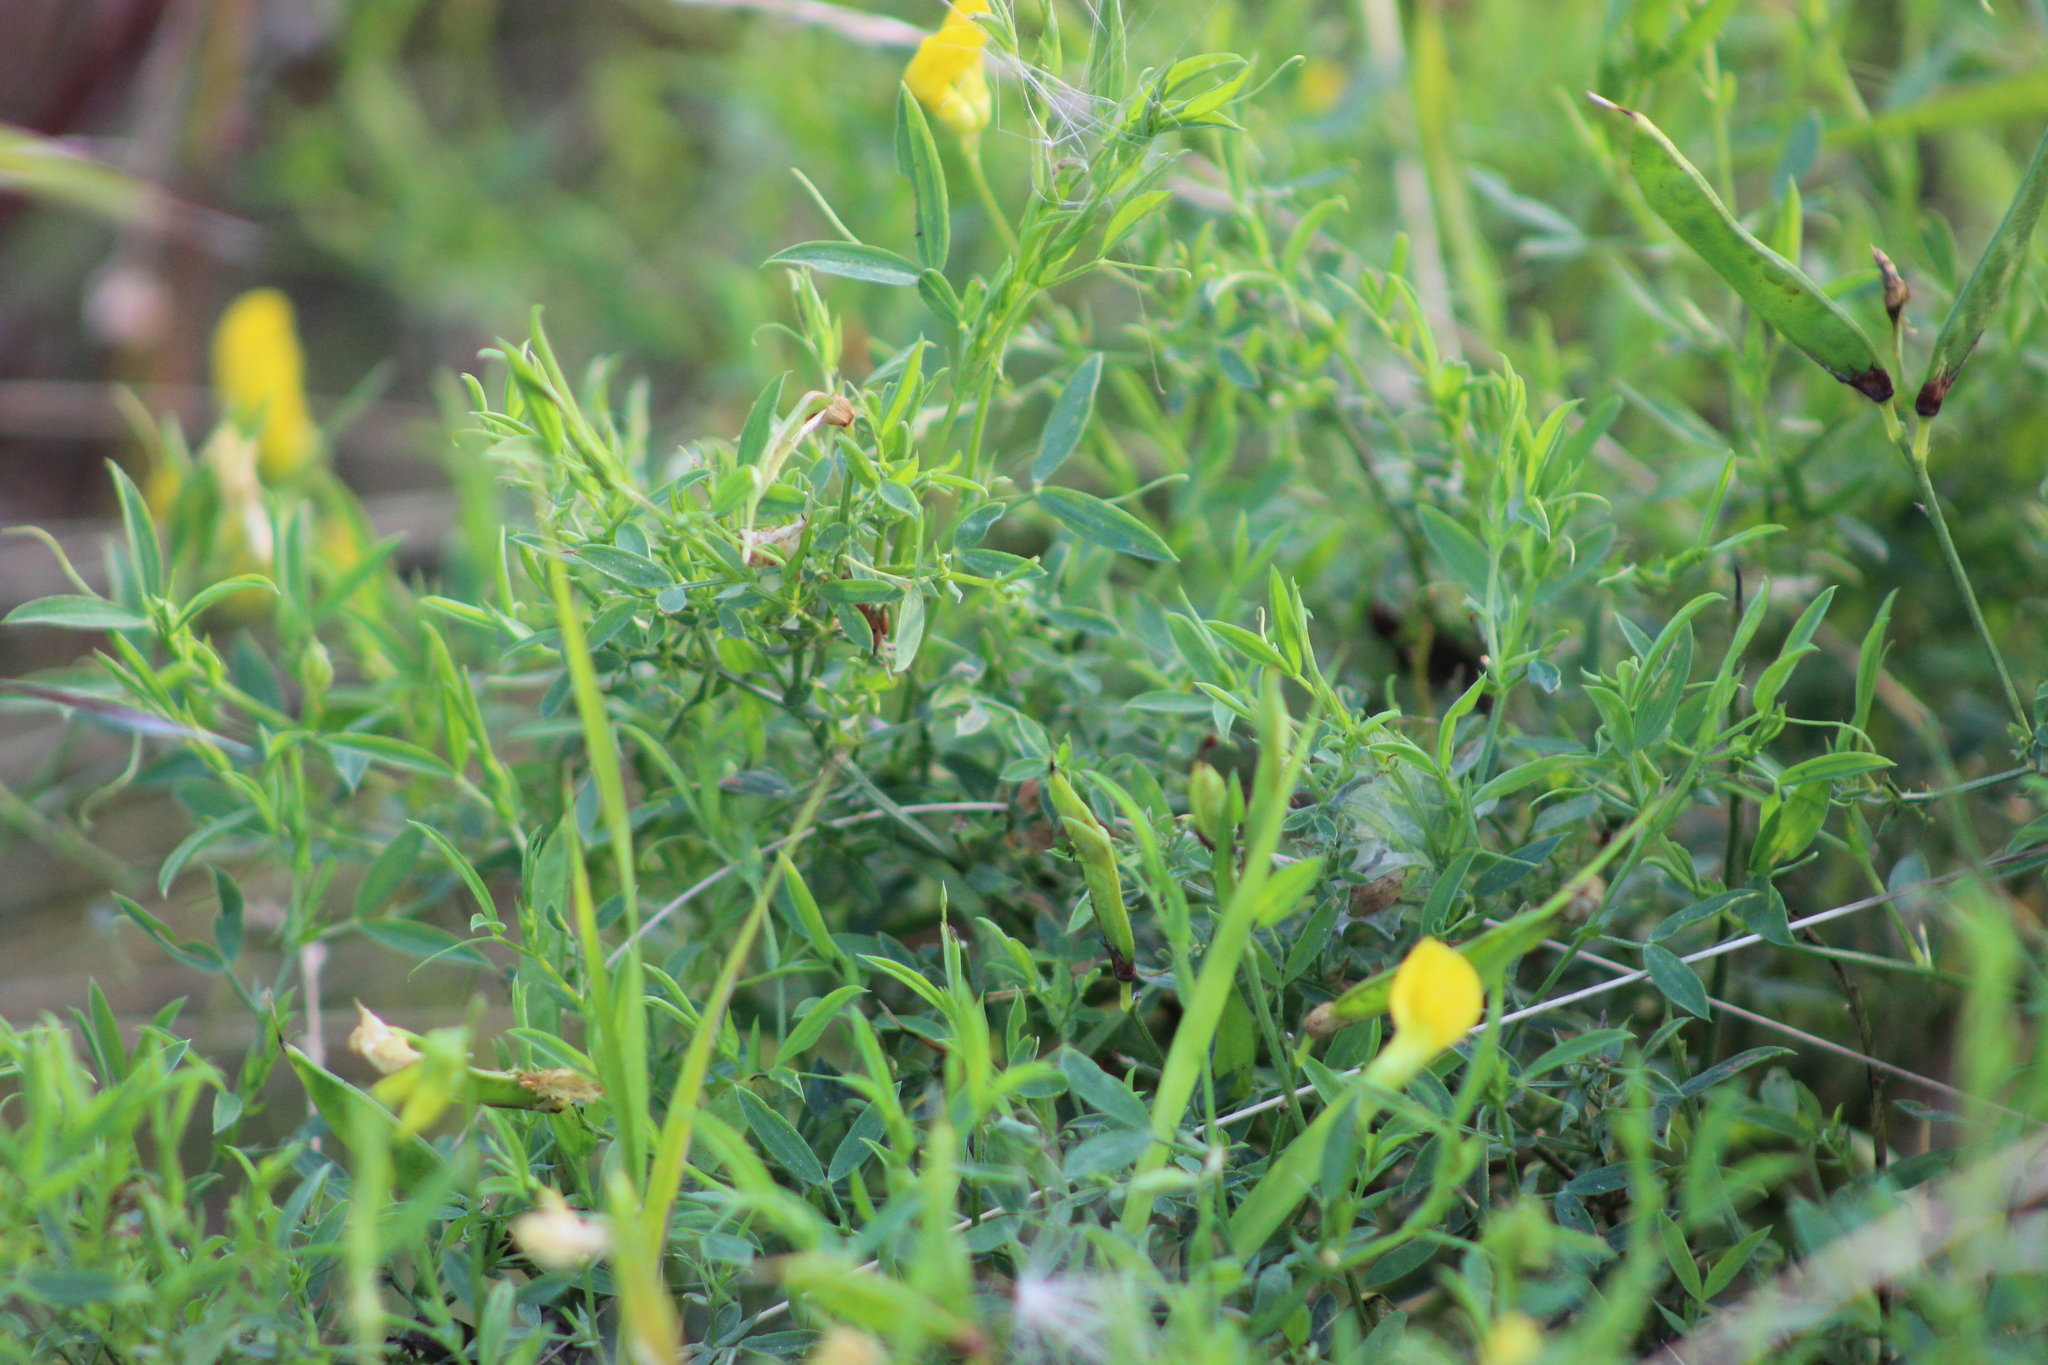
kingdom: Plantae
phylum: Tracheophyta
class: Magnoliopsida
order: Fabales
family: Fabaceae
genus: Lathyrus
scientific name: Lathyrus pratensis
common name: Meadow vetchling
